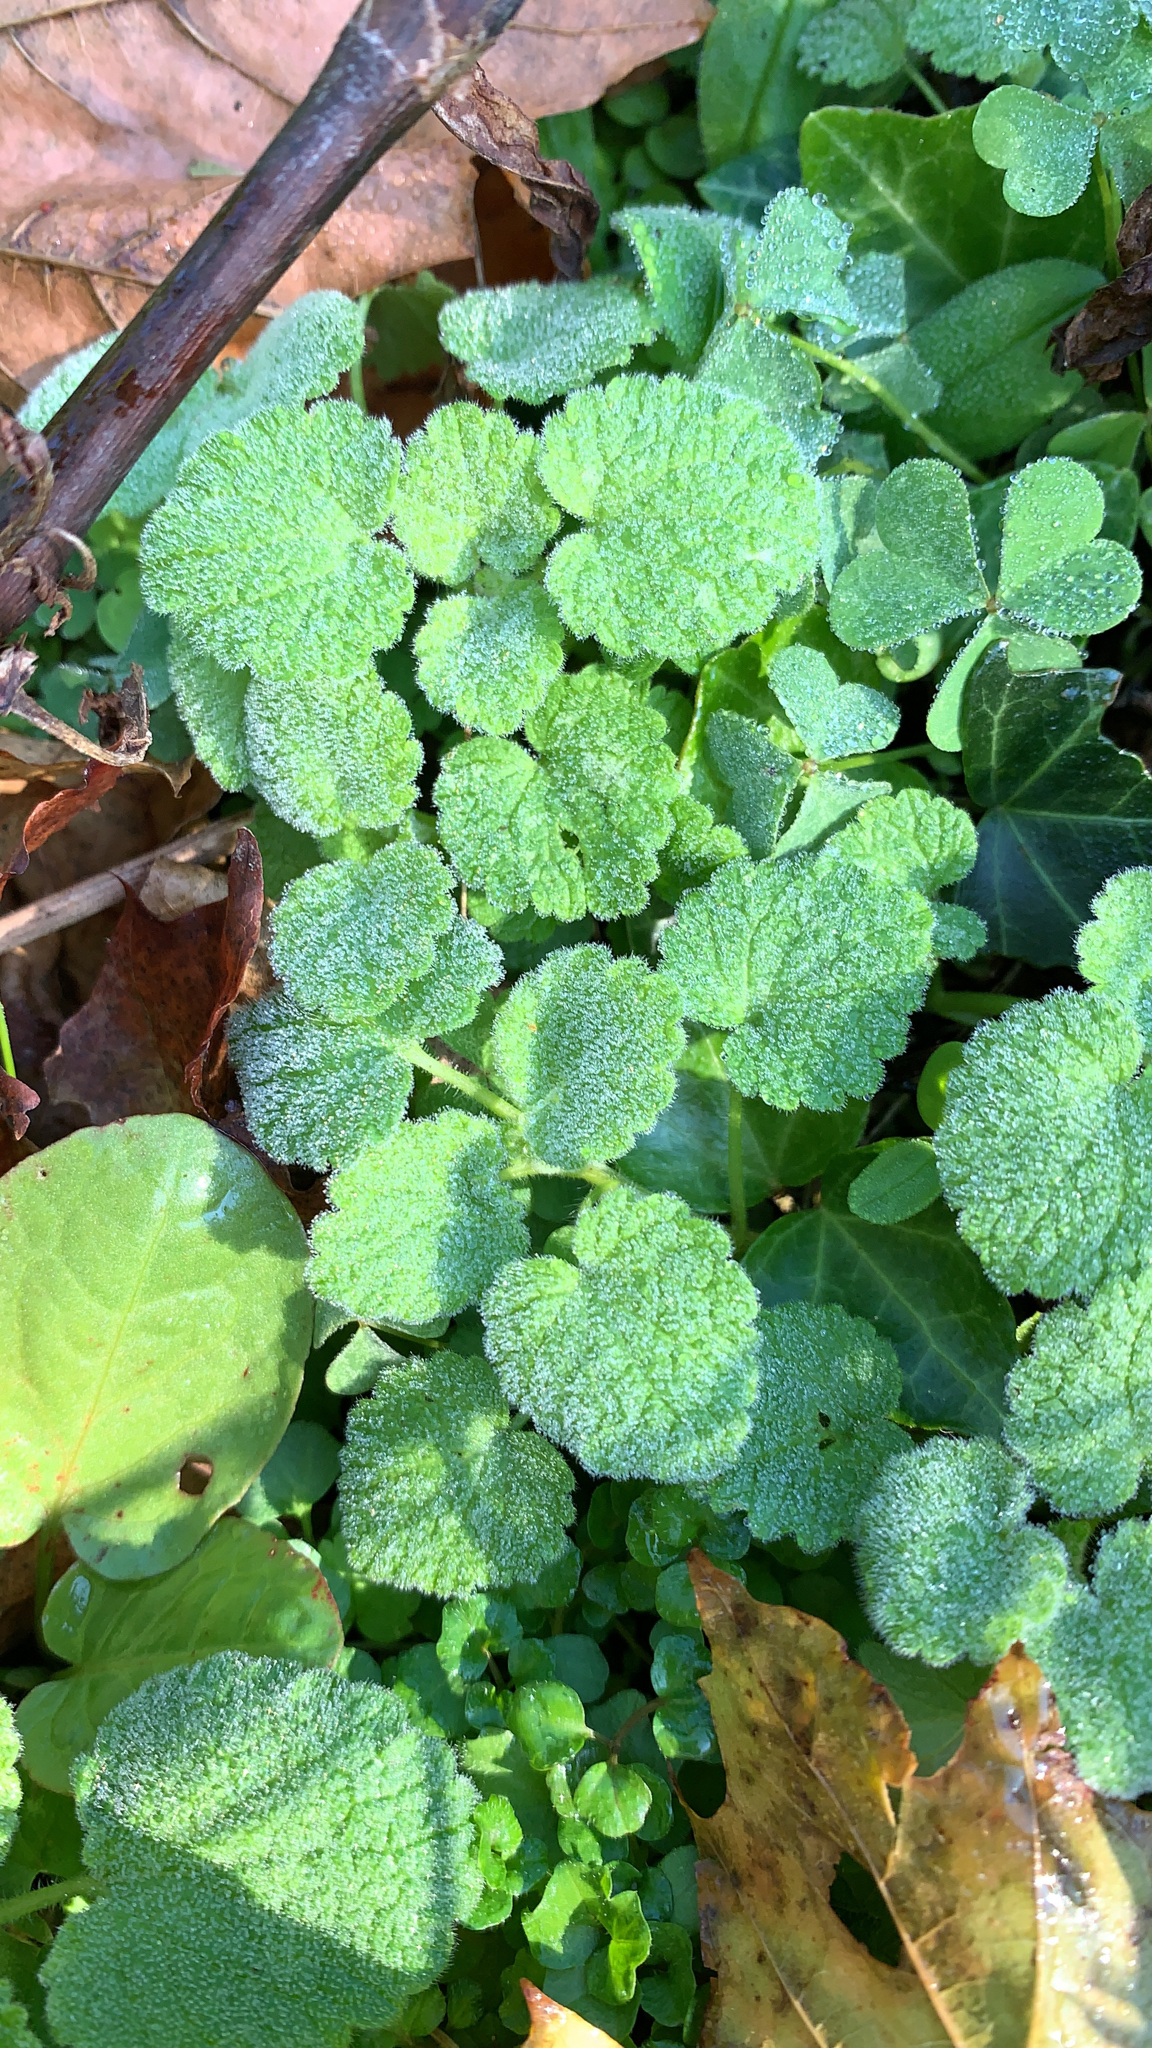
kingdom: Plantae
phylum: Tracheophyta
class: Magnoliopsida
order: Lamiales
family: Lamiaceae
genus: Lamium
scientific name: Lamium purpureum
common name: Red dead-nettle
